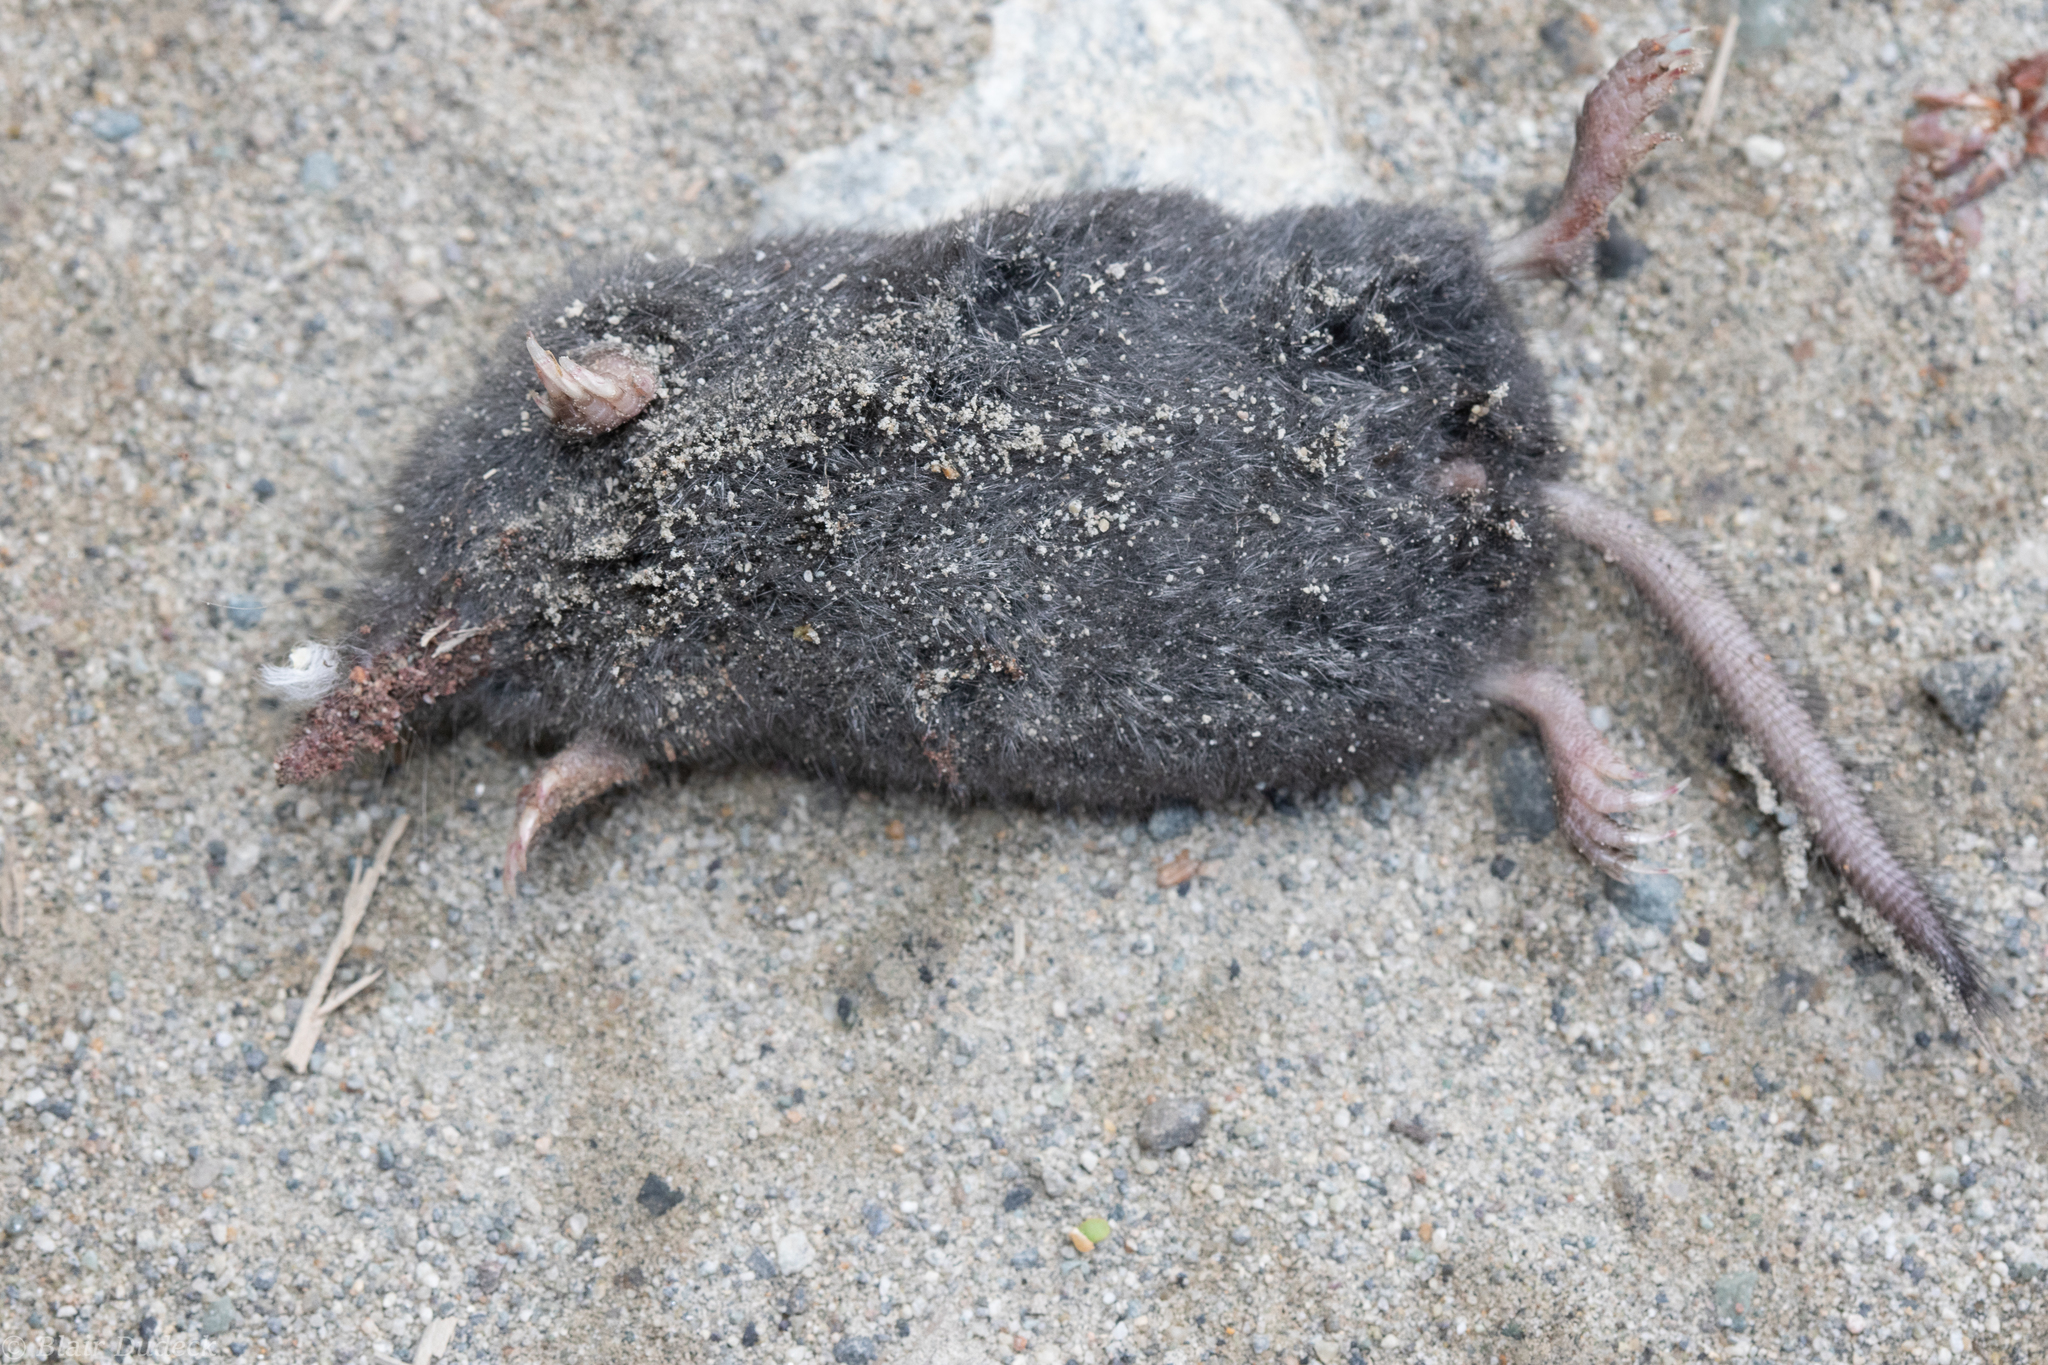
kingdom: Animalia
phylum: Chordata
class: Mammalia
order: Soricomorpha
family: Talpidae
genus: Neurotrichus
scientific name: Neurotrichus gibbsii
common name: American shrew mole
